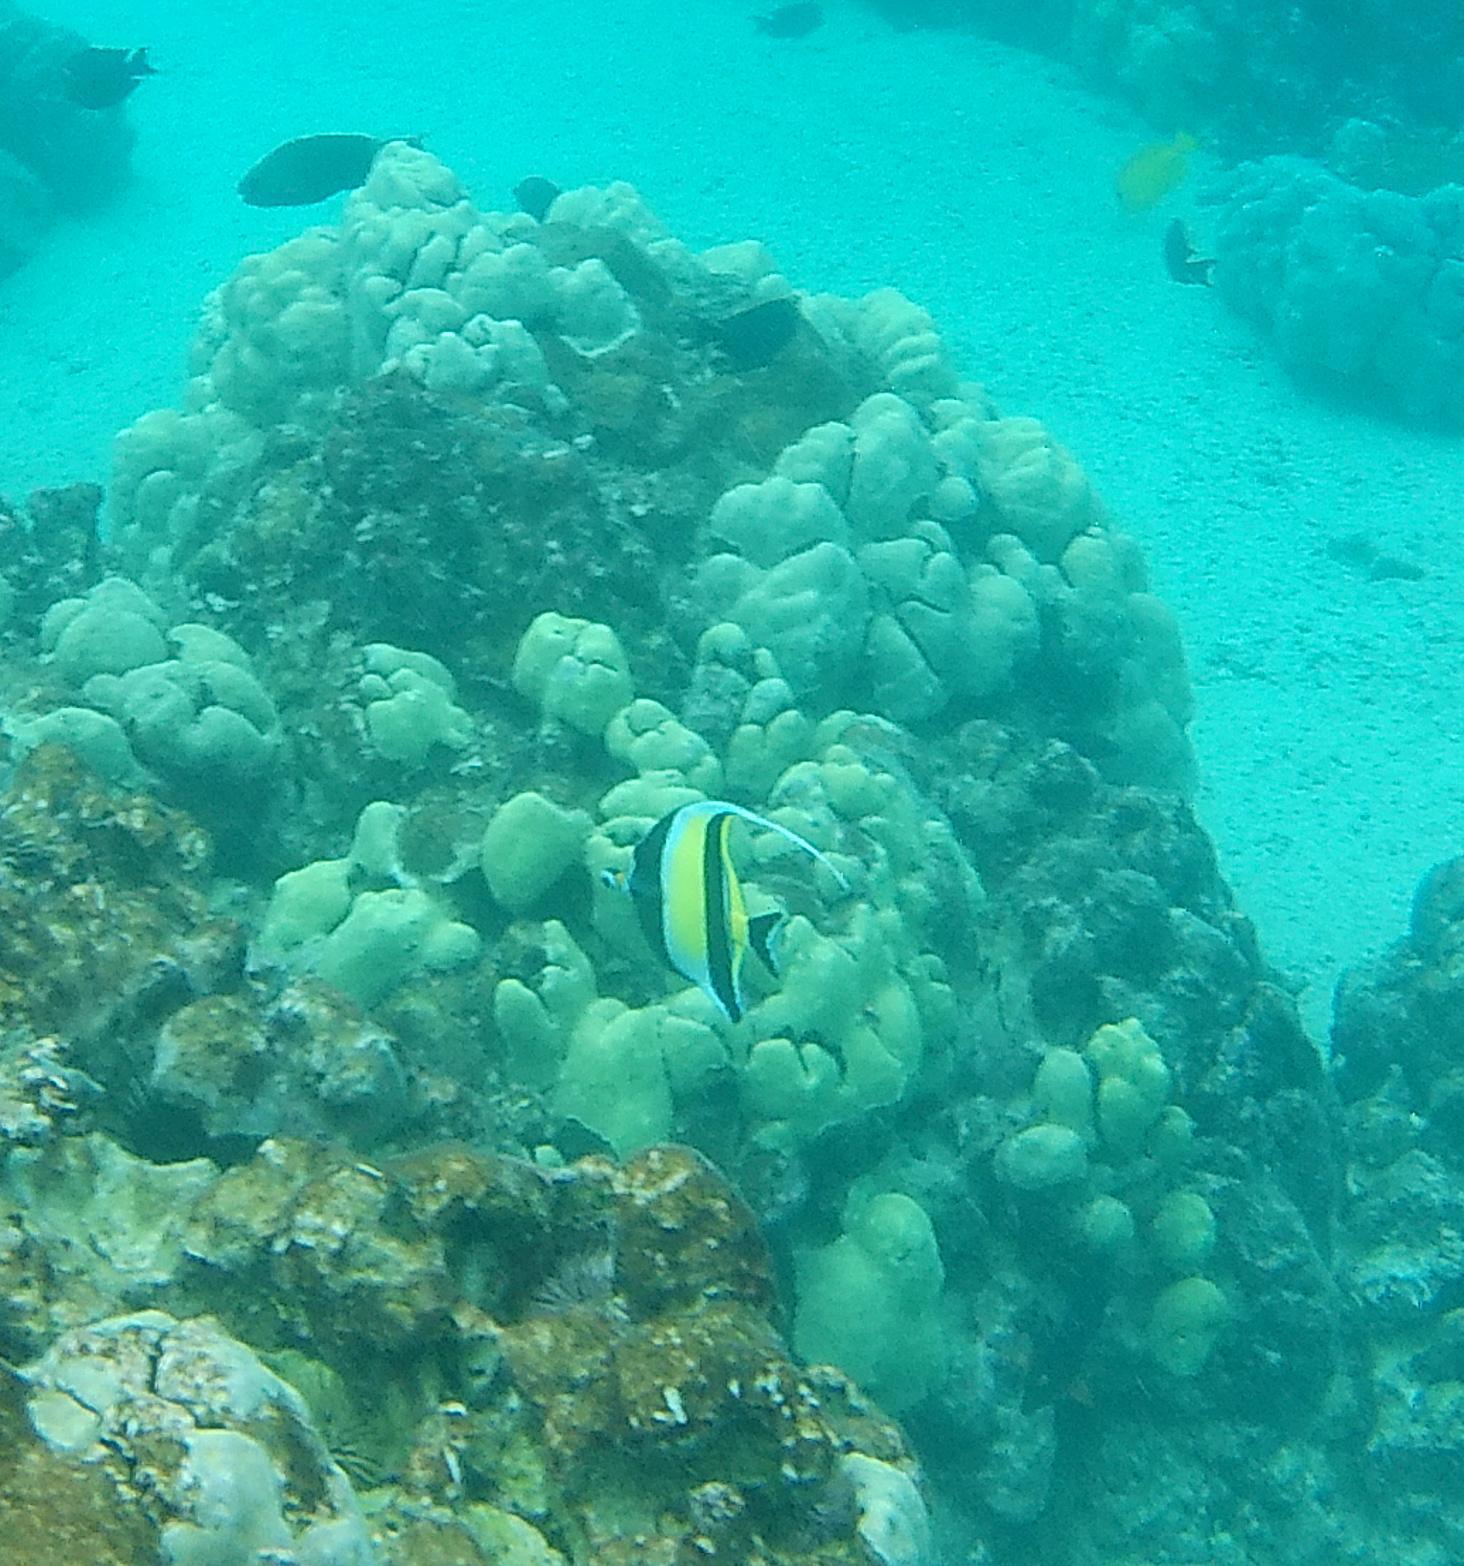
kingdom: Animalia
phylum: Chordata
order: Perciformes
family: Zanclidae
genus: Zanclus
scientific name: Zanclus cornutus
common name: Moorish idol
